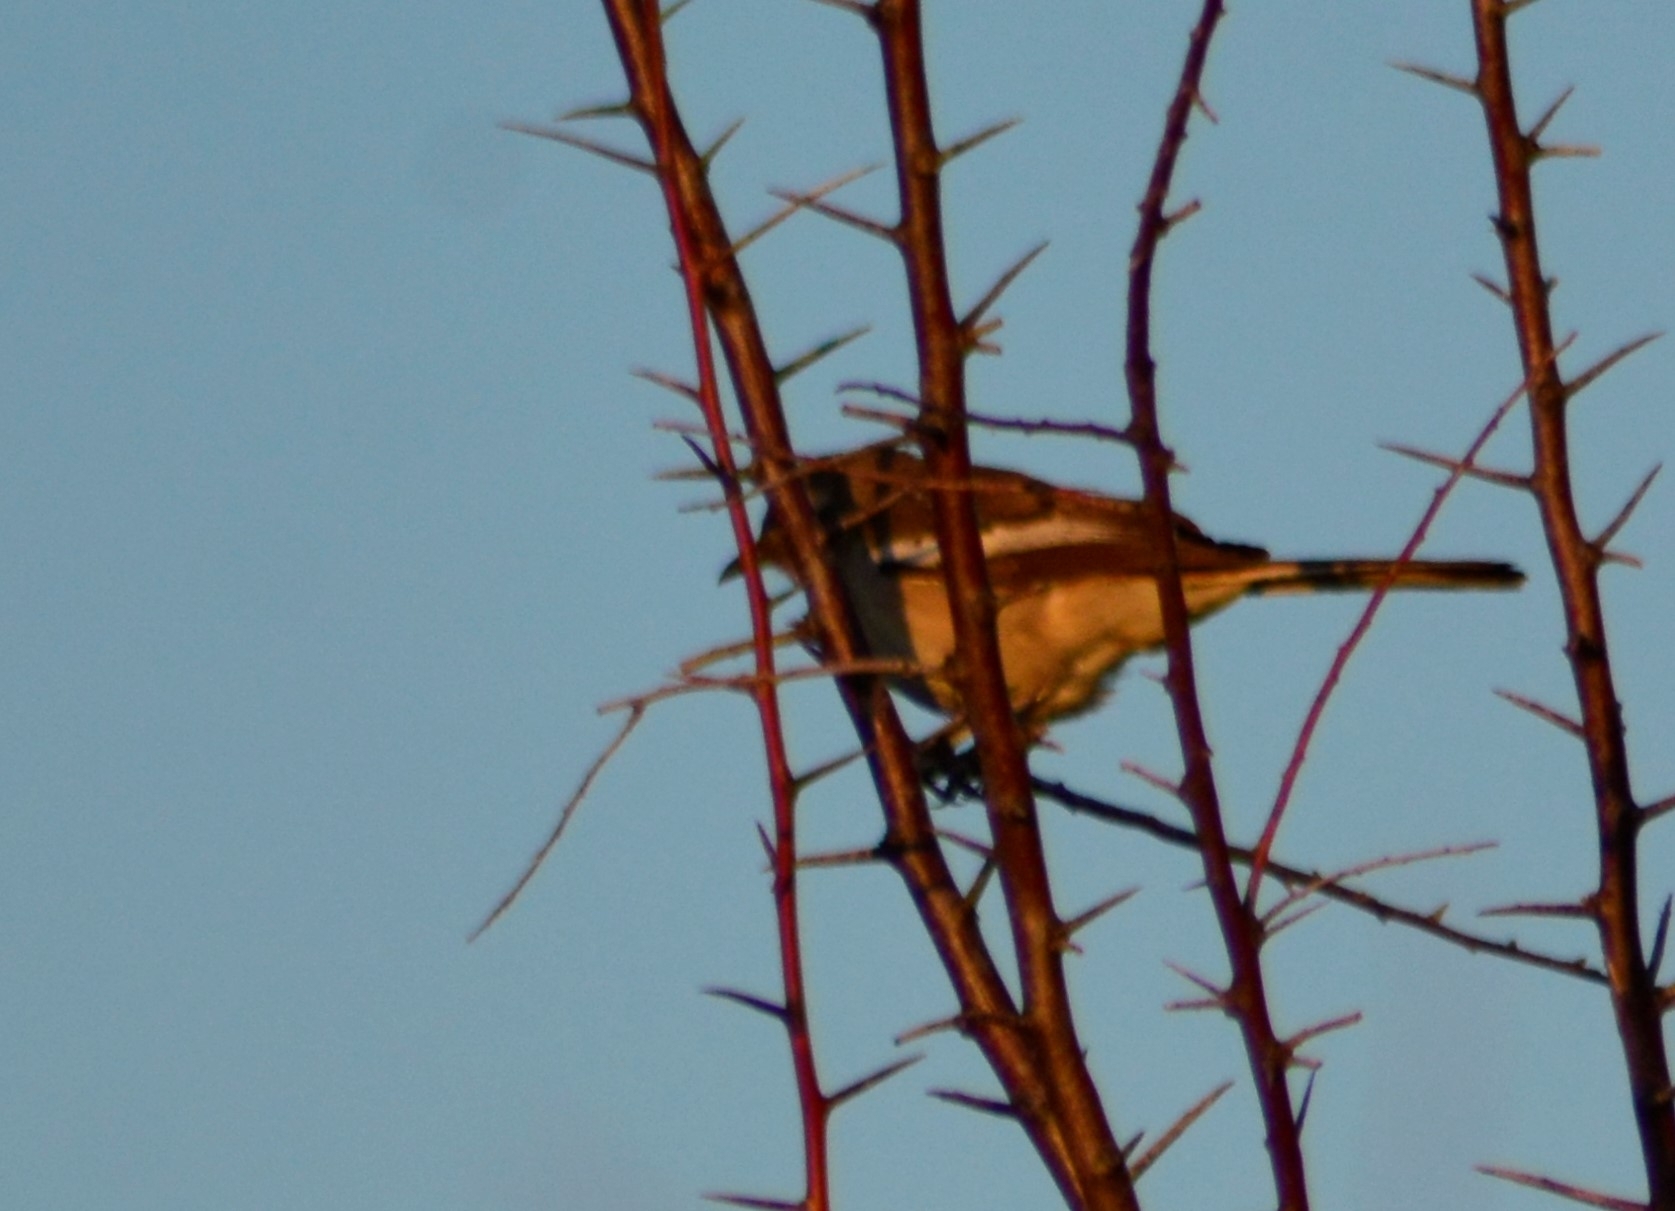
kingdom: Animalia
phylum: Chordata
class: Aves
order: Passeriformes
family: Mimidae
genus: Mimus
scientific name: Mimus triurus
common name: White-banded mockingbird
